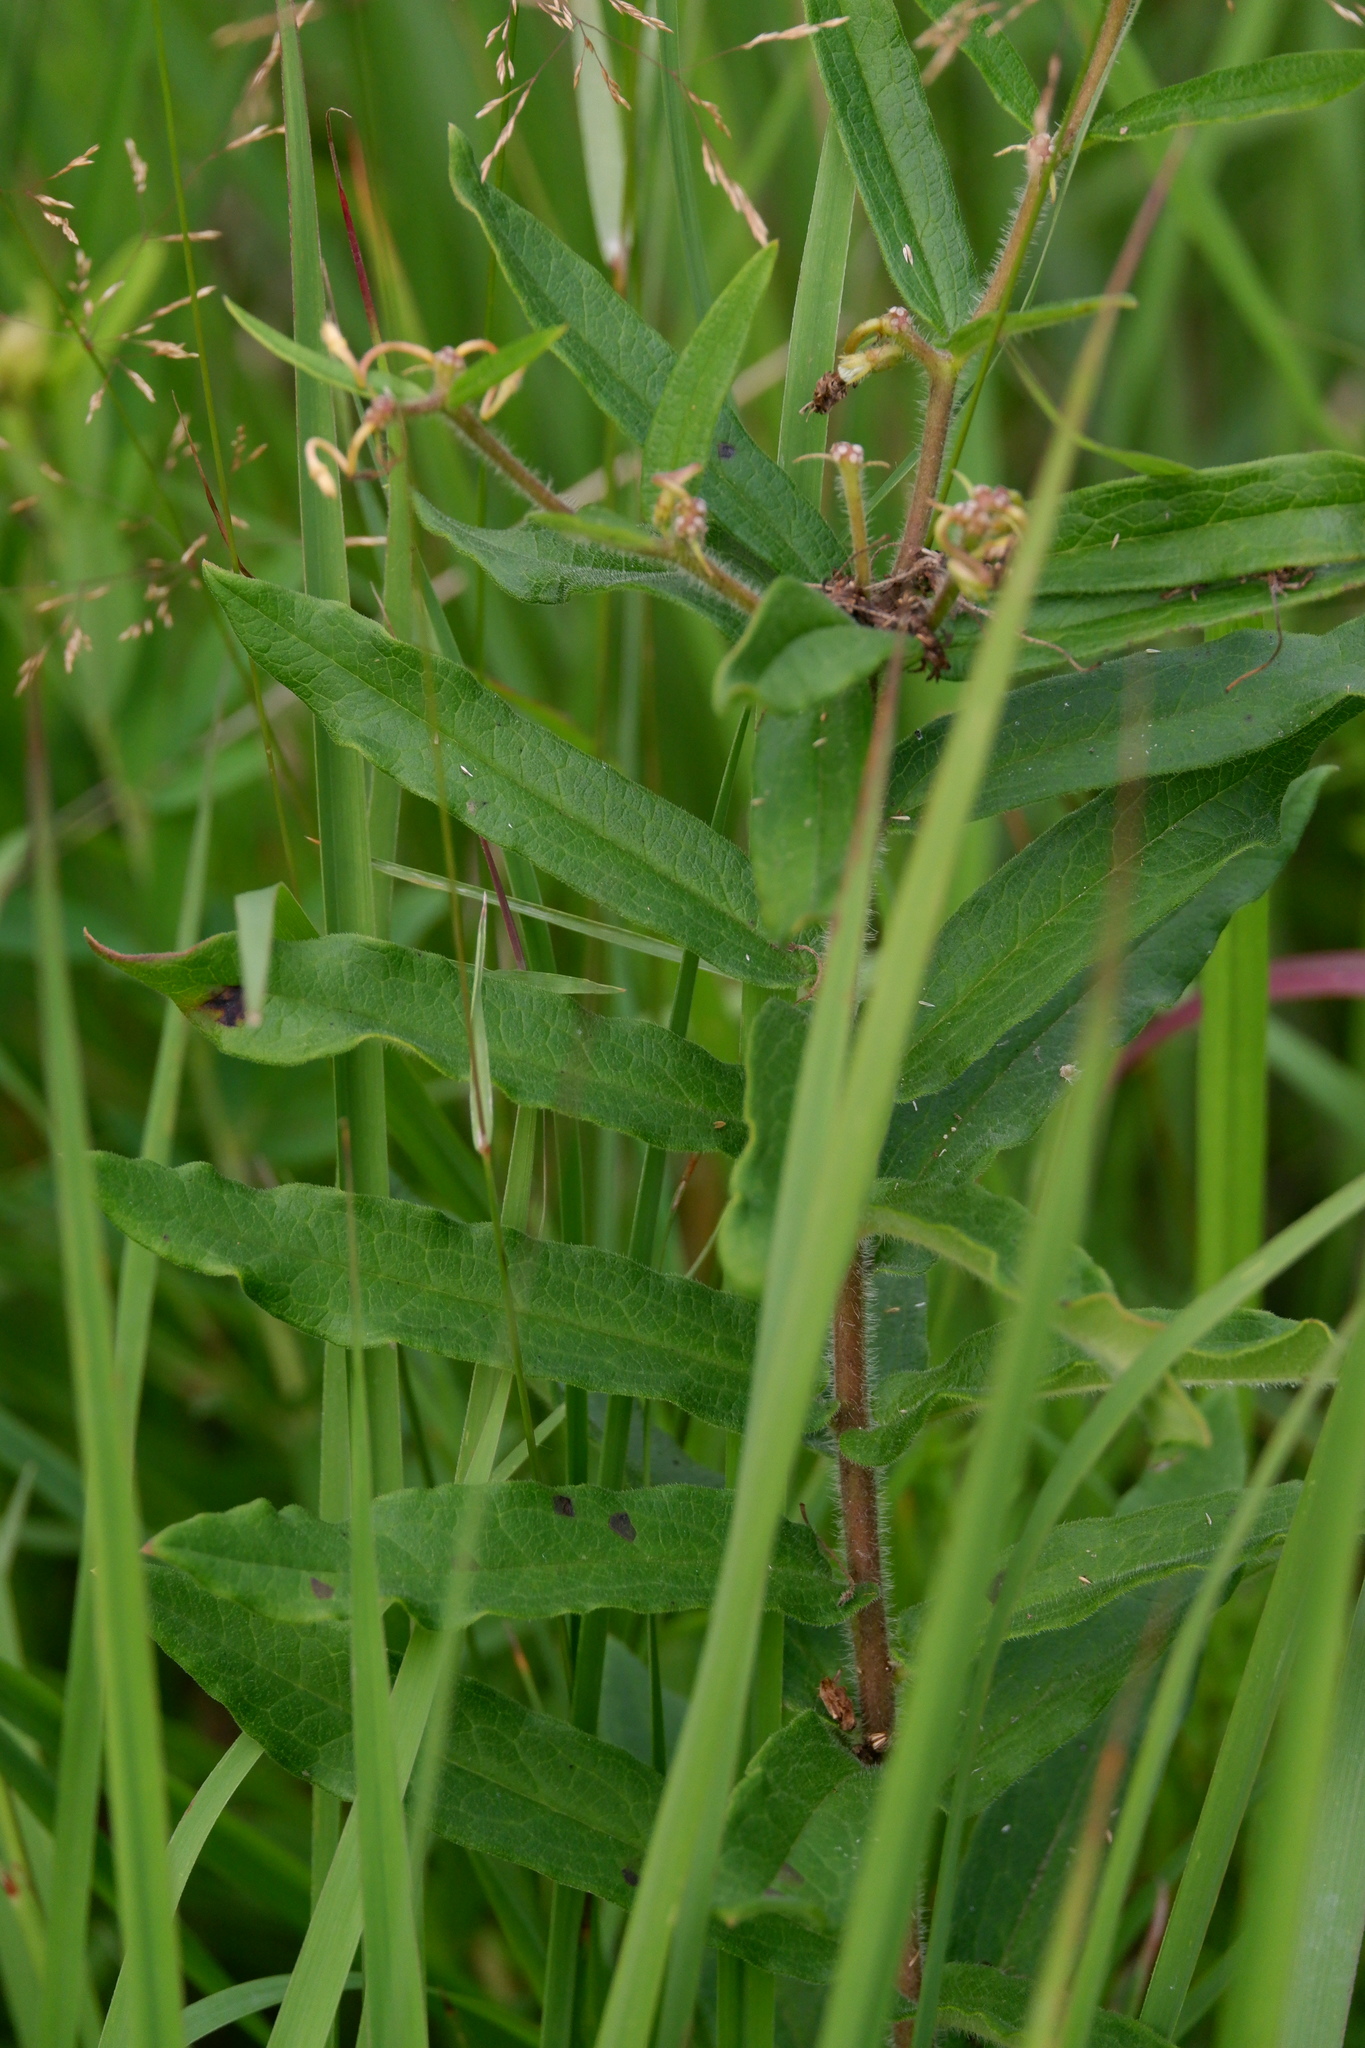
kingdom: Plantae
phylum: Tracheophyta
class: Magnoliopsida
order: Gentianales
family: Apocynaceae
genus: Asclepias
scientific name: Asclepias tuberosa
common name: Butterfly milkweed
